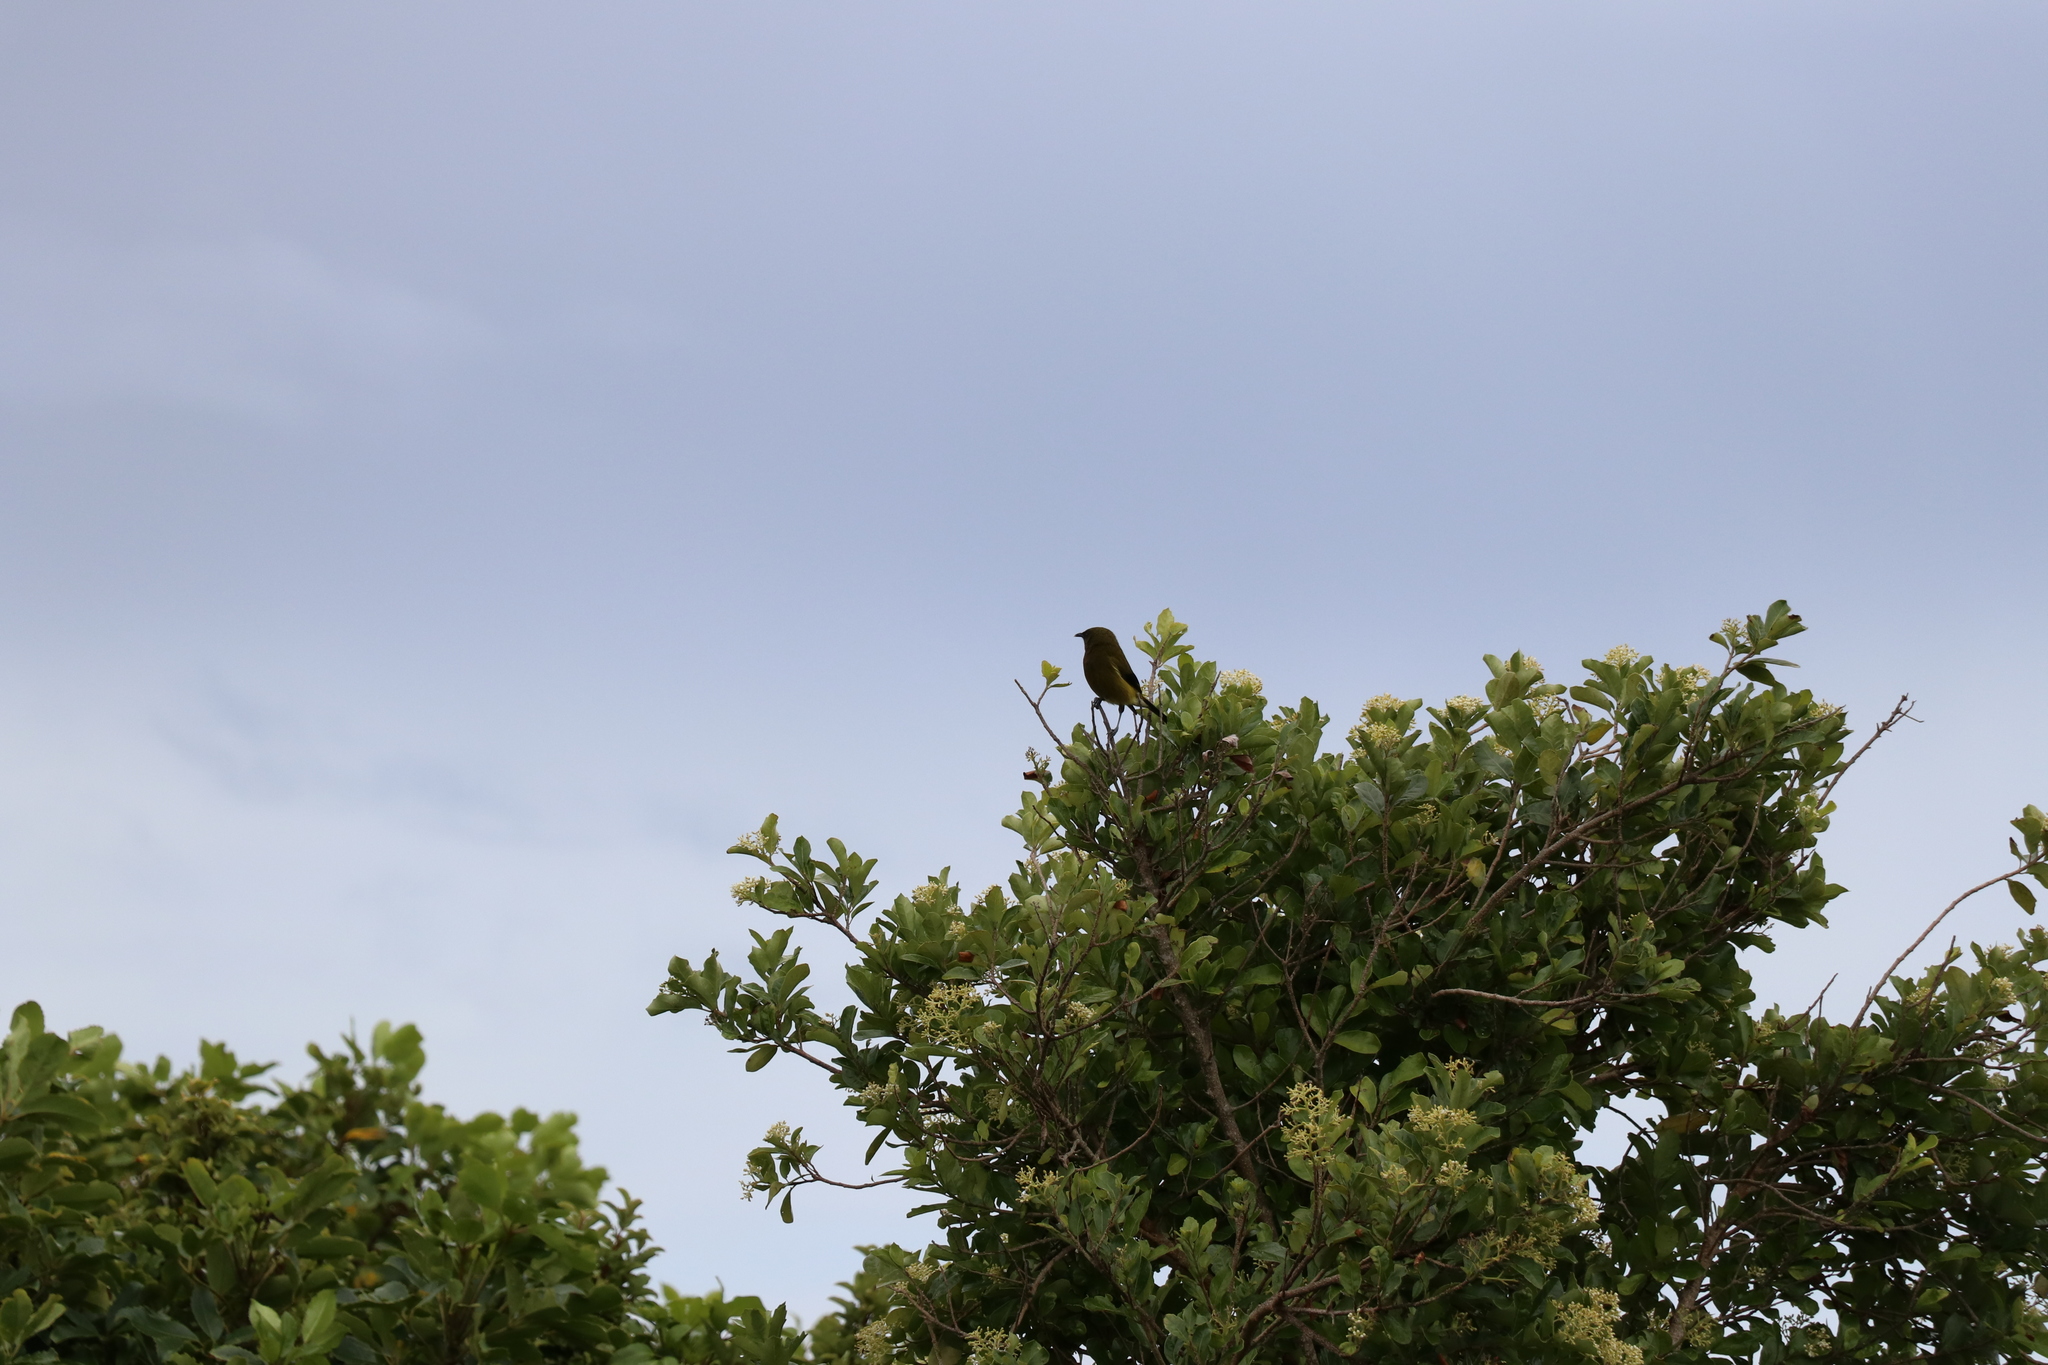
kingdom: Animalia
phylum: Chordata
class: Aves
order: Passeriformes
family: Meliphagidae
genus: Anthornis
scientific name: Anthornis melanura
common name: New zealand bellbird
